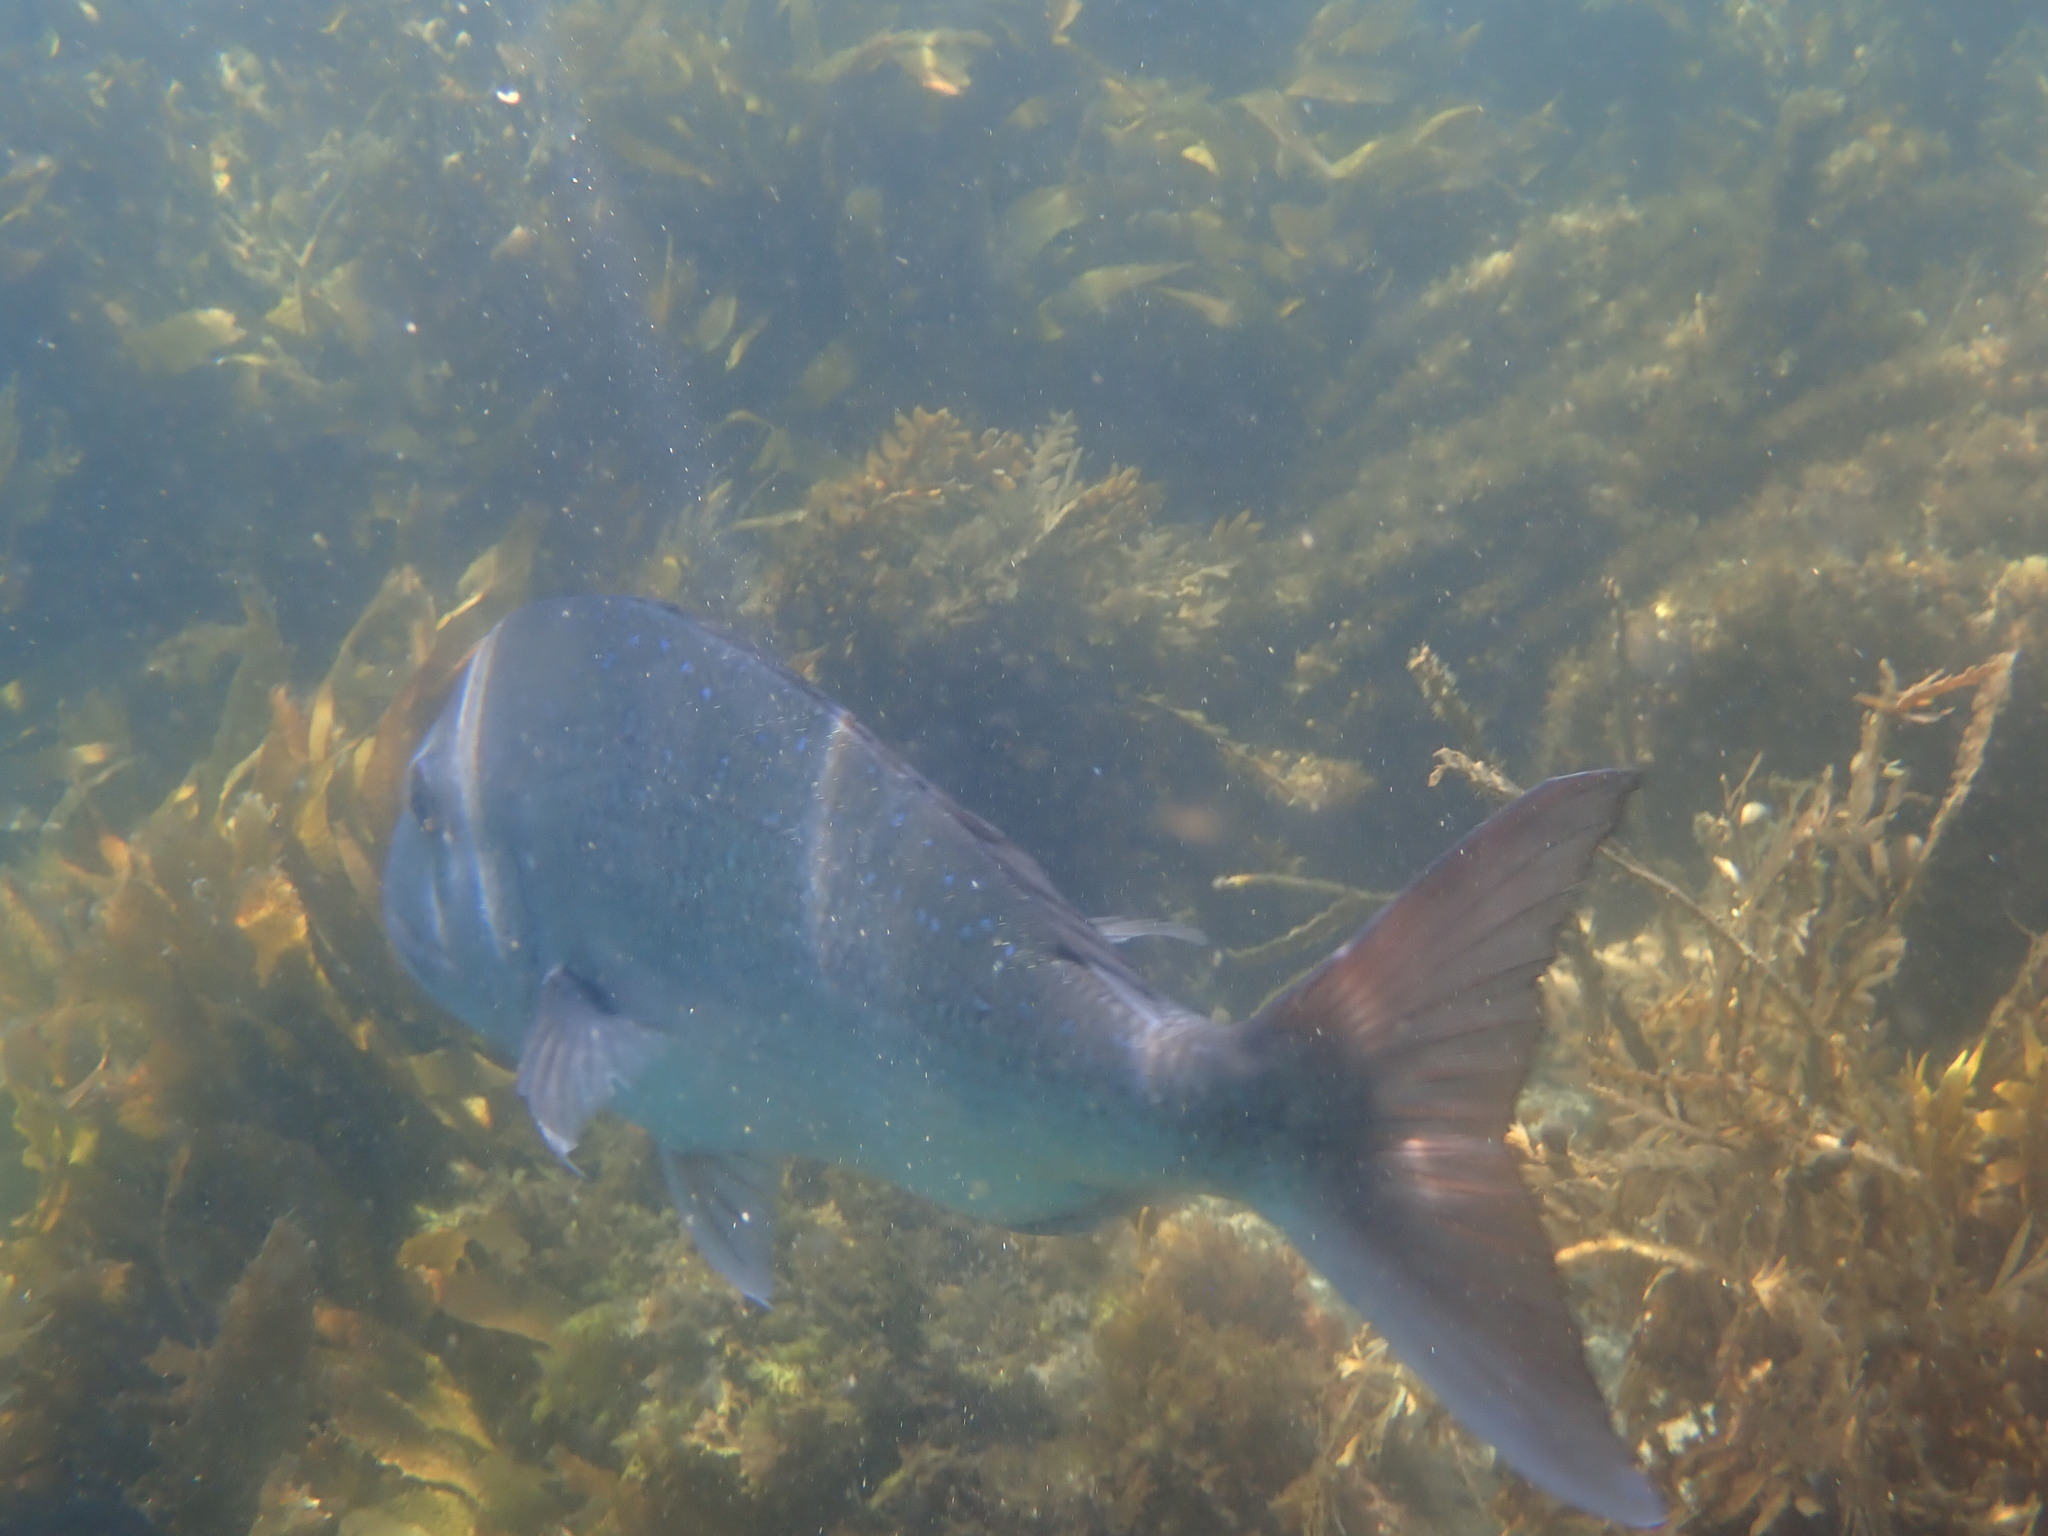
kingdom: Animalia
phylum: Chordata
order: Perciformes
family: Sparidae
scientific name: Sparidae
